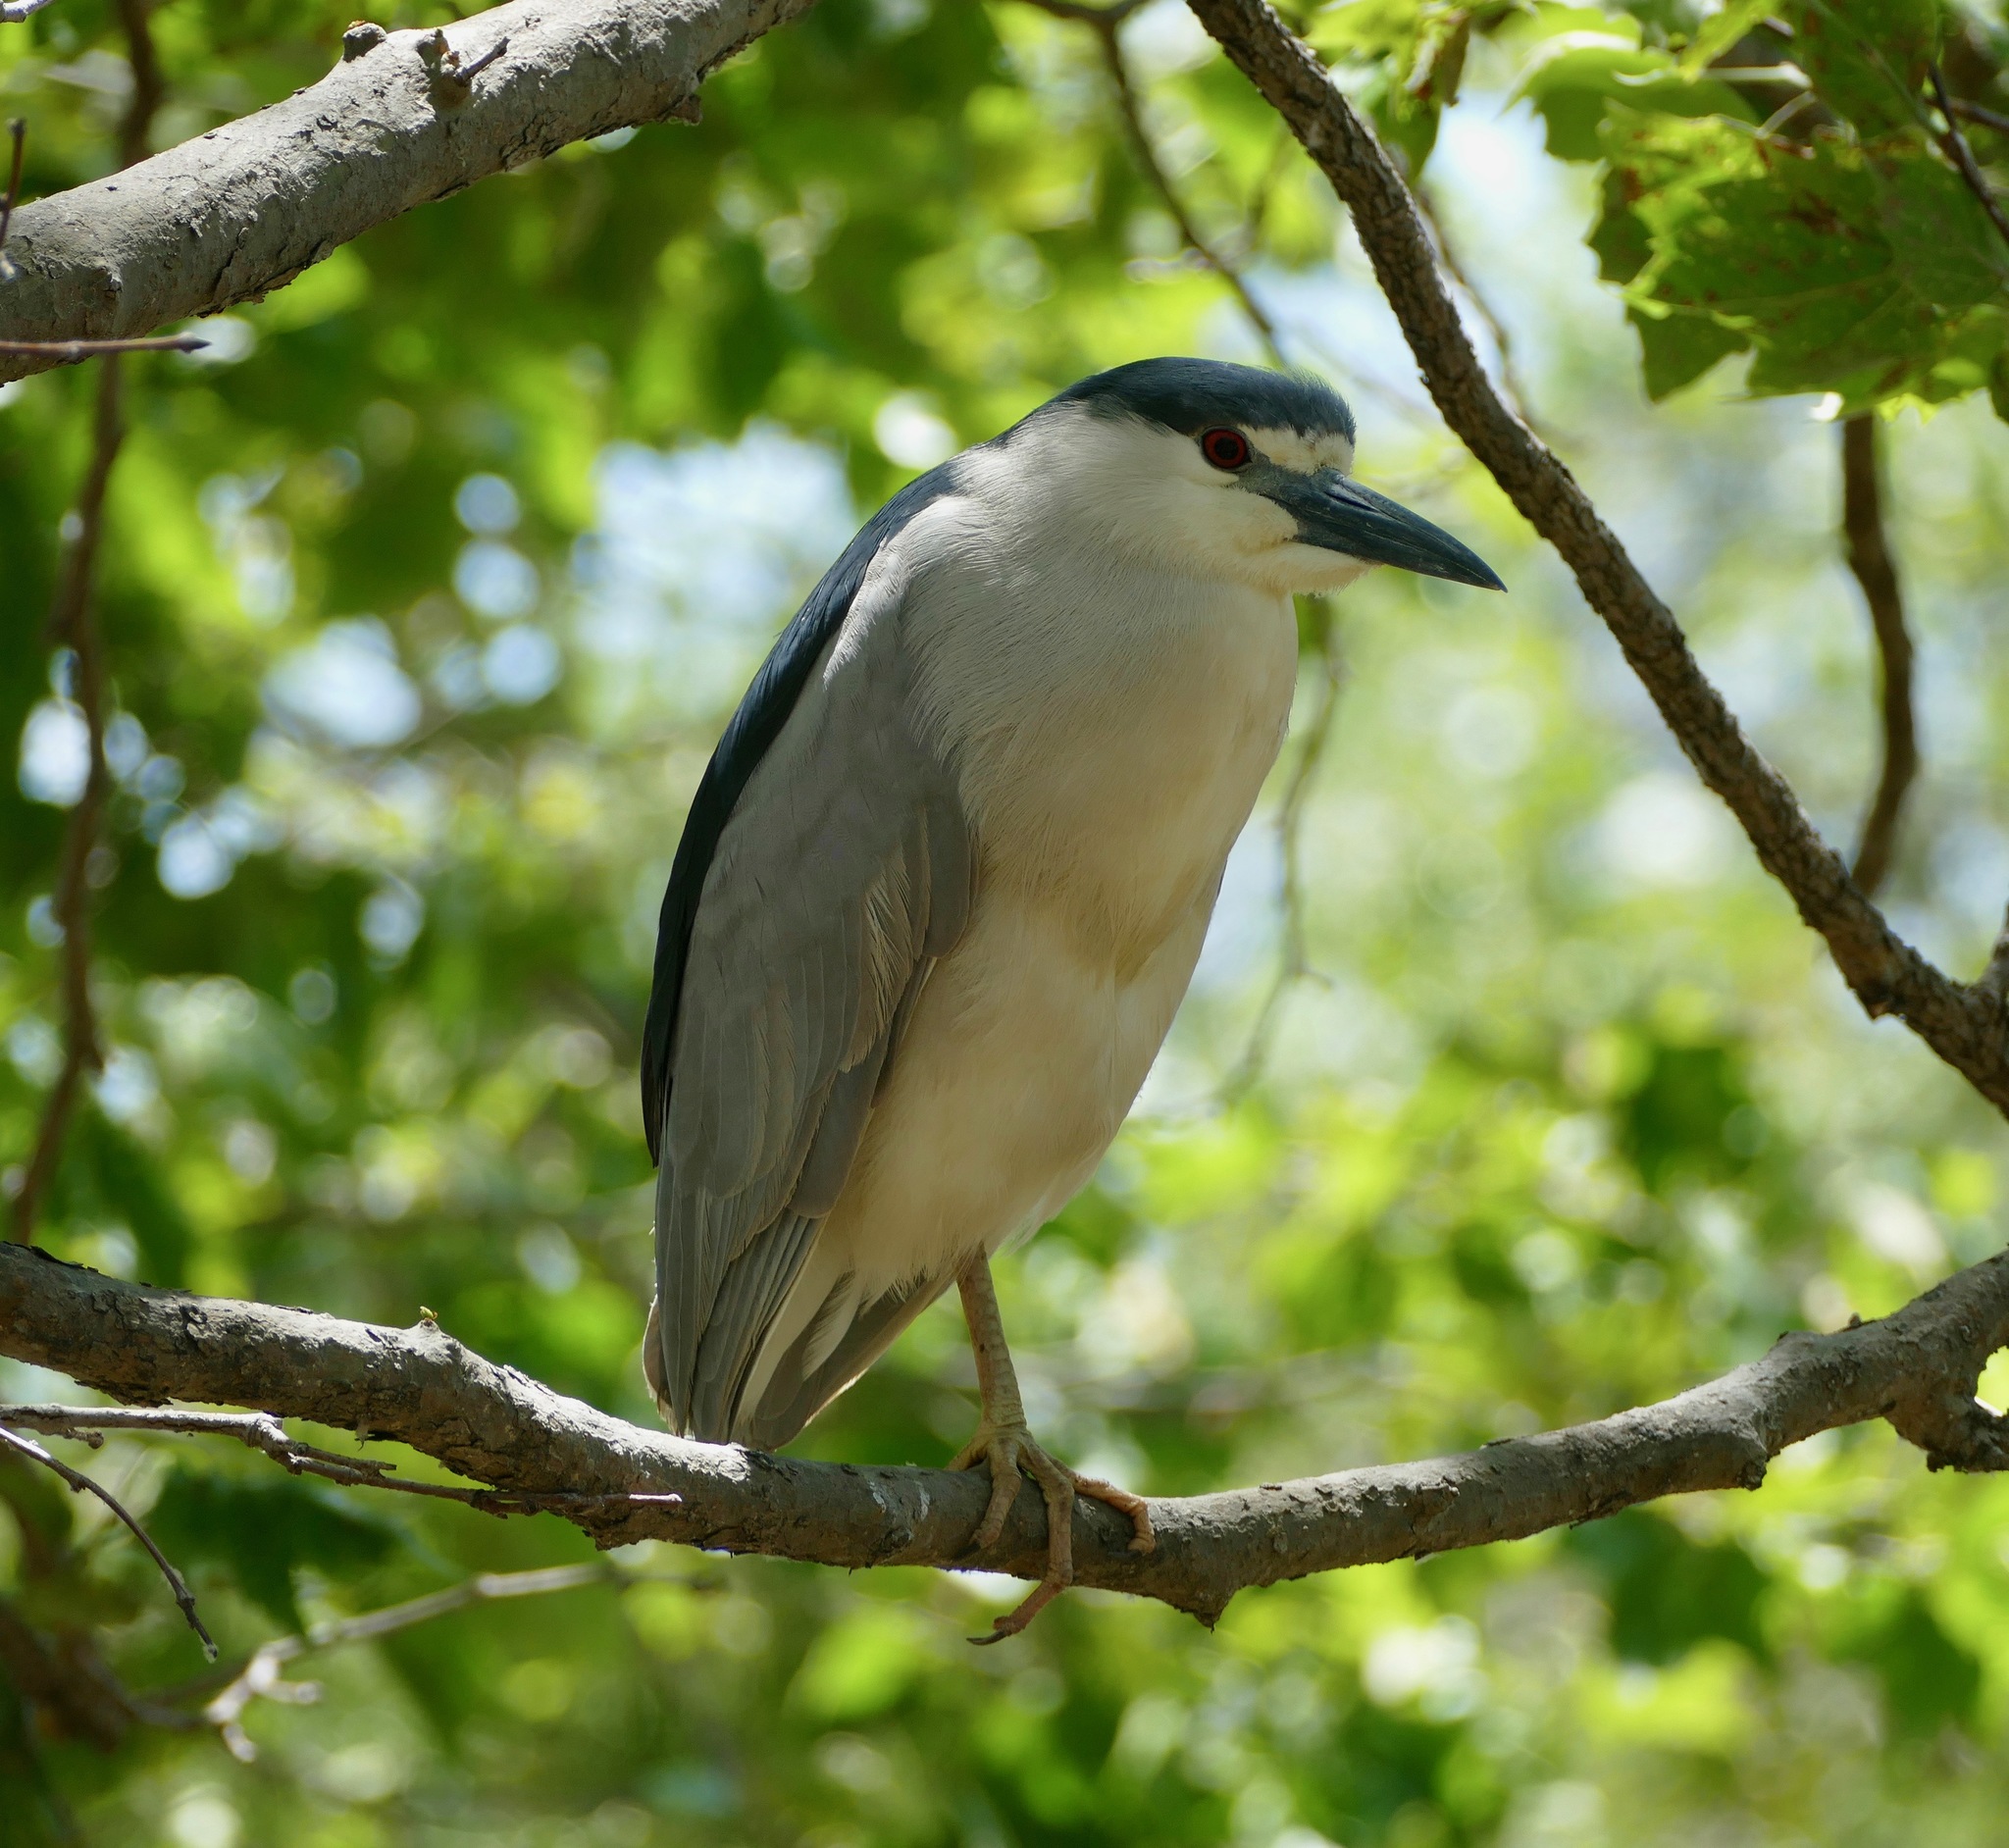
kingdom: Animalia
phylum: Chordata
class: Aves
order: Pelecaniformes
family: Ardeidae
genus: Nycticorax
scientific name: Nycticorax nycticorax
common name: Black-crowned night heron
